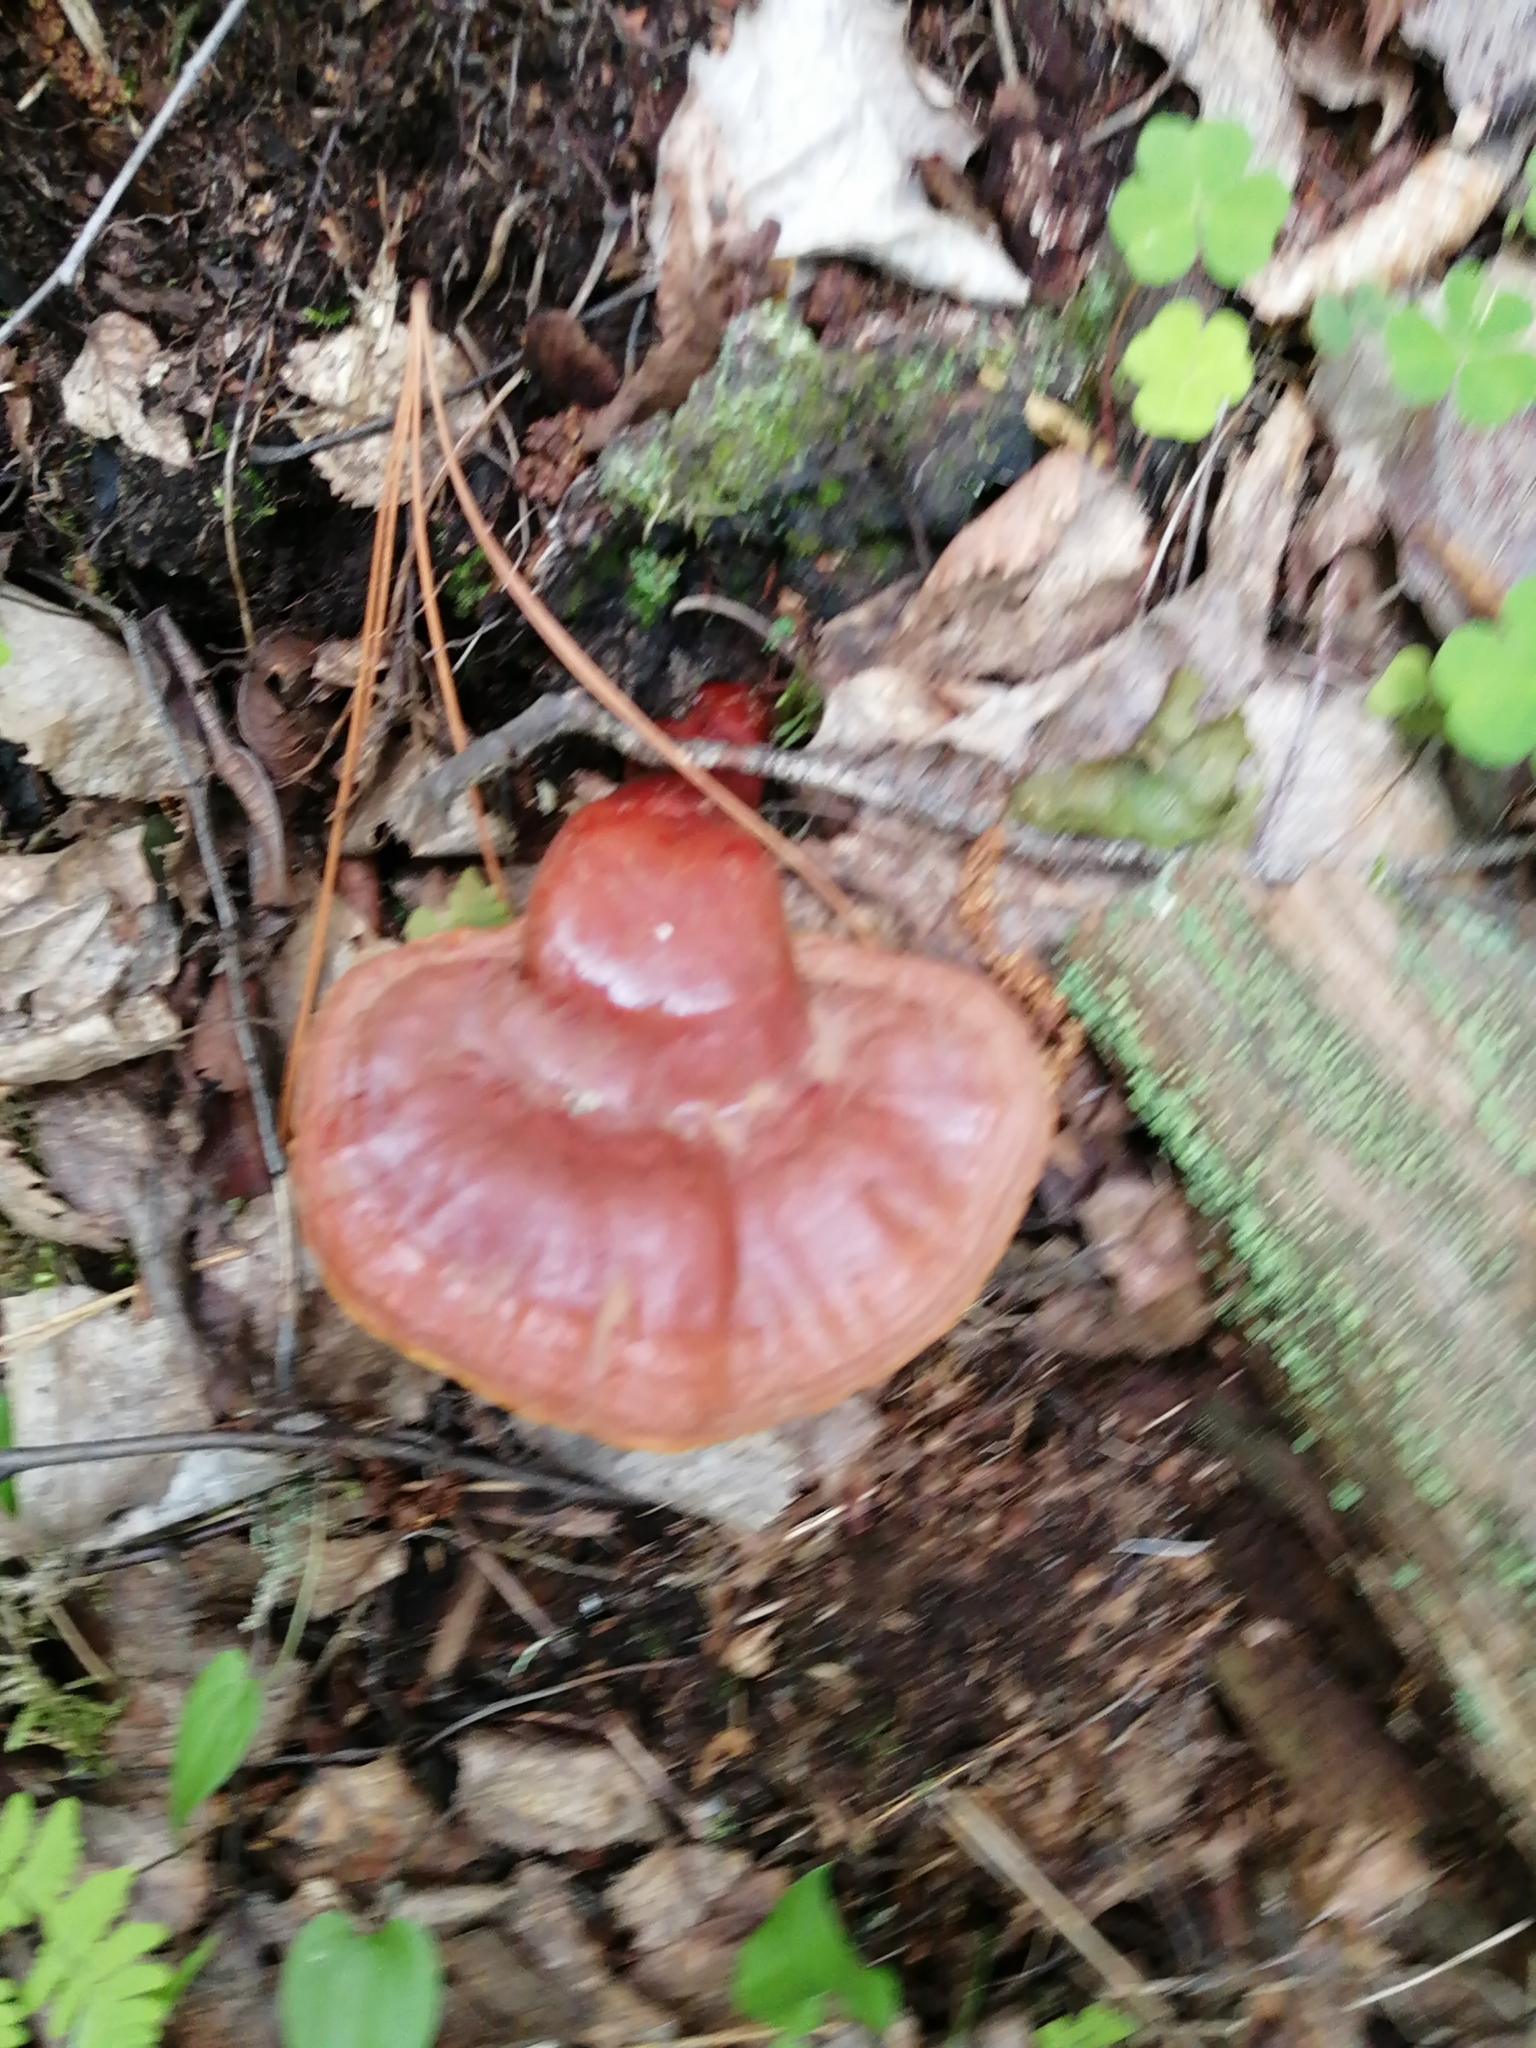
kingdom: Fungi
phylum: Basidiomycota
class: Agaricomycetes
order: Polyporales
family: Polyporaceae
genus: Ganoderma
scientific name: Ganoderma lucidum
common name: Lacquered bracket
